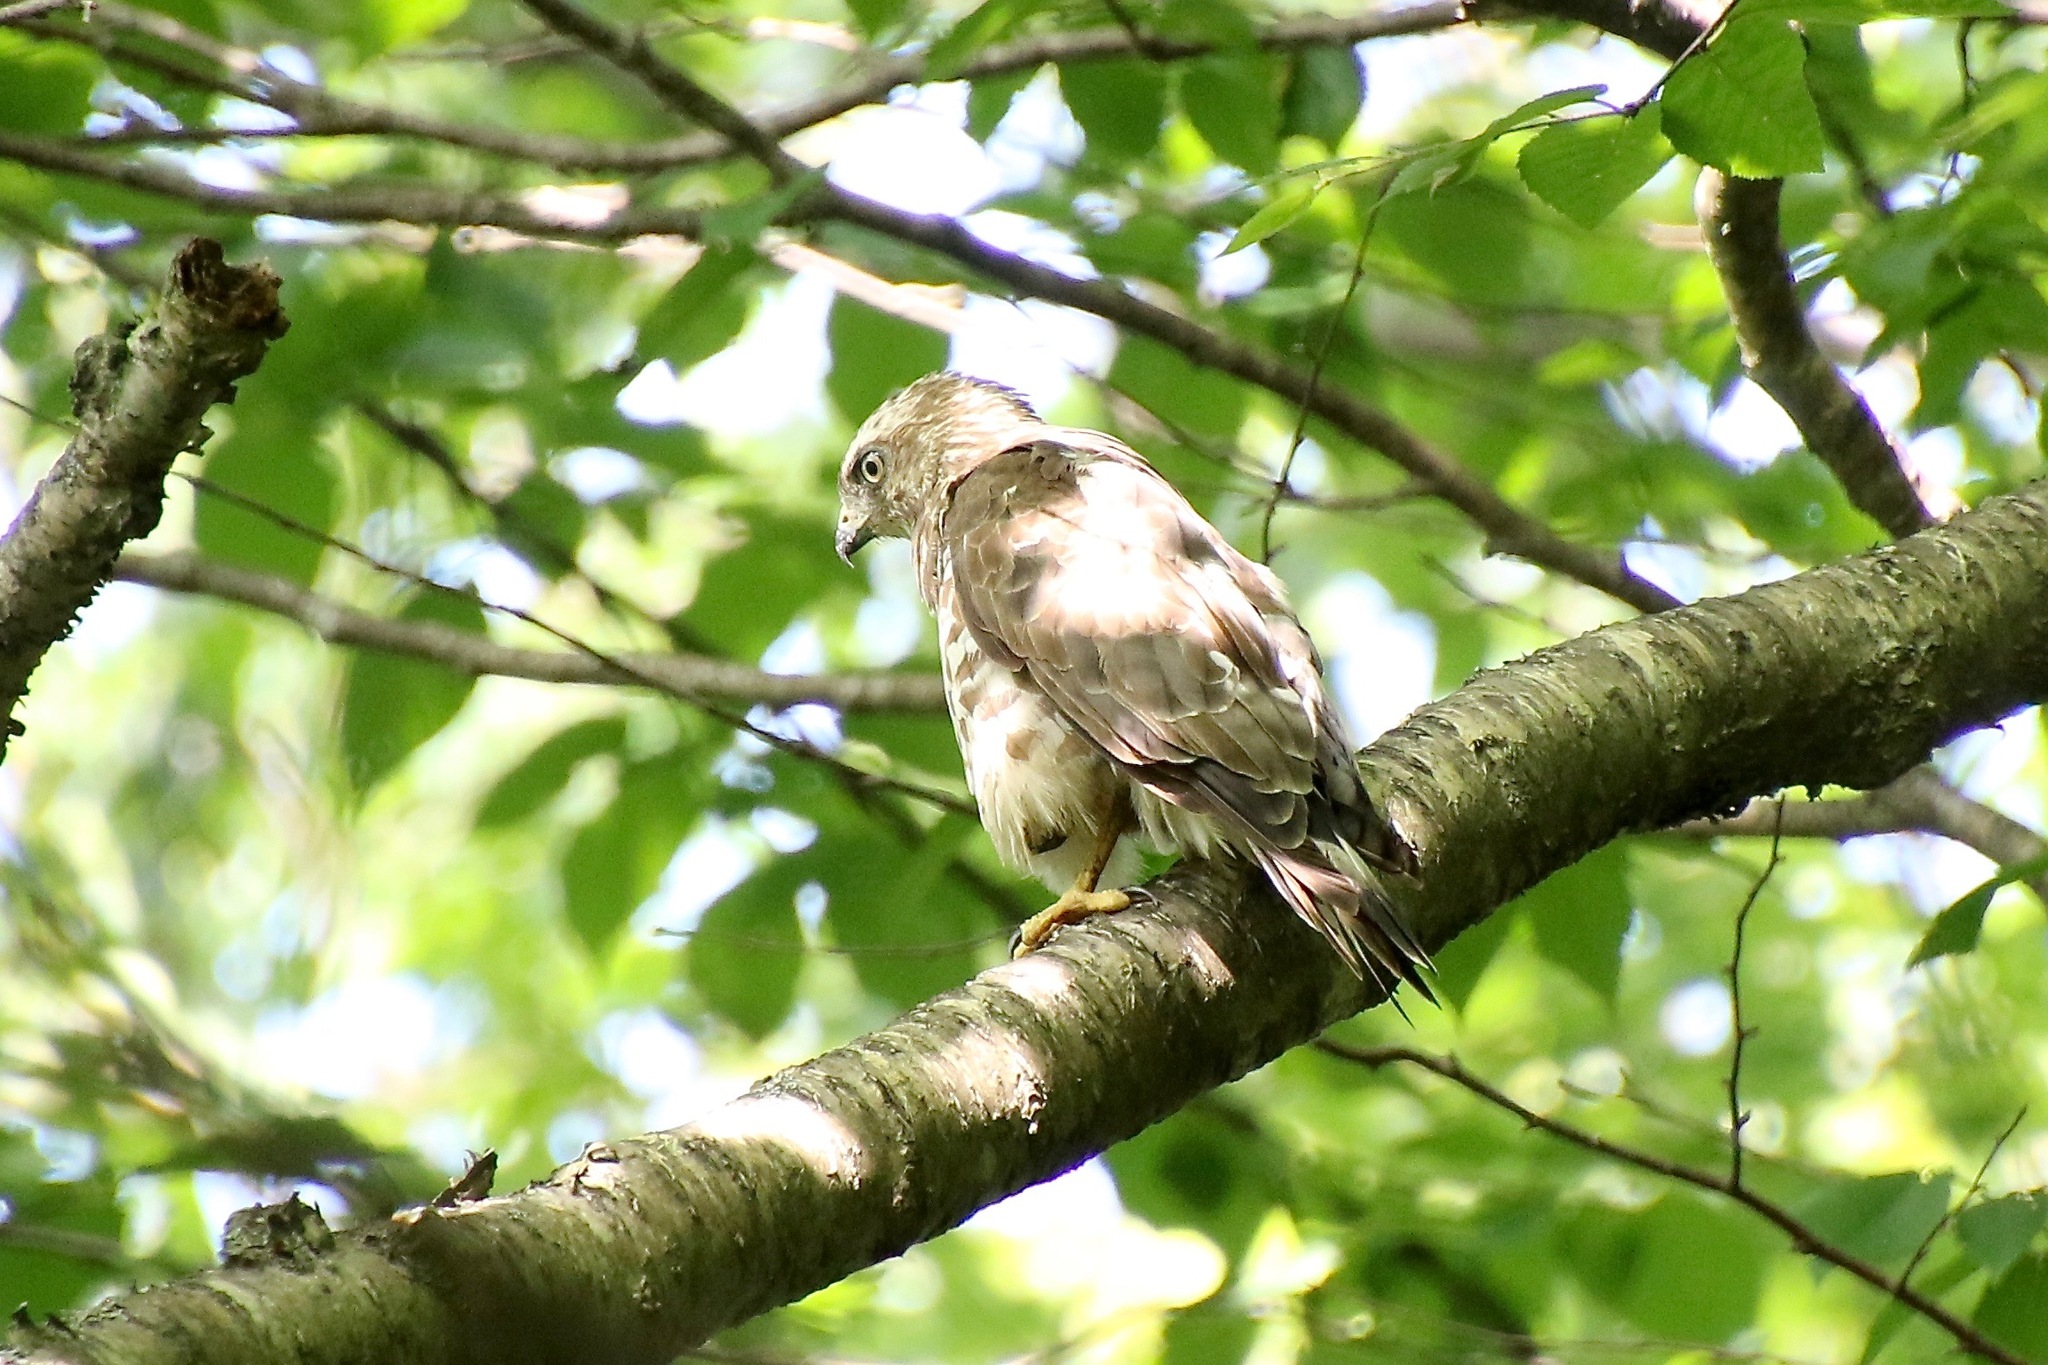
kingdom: Animalia
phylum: Chordata
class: Aves
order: Accipitriformes
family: Accipitridae
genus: Buteo
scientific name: Buteo platypterus
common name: Broad-winged hawk
